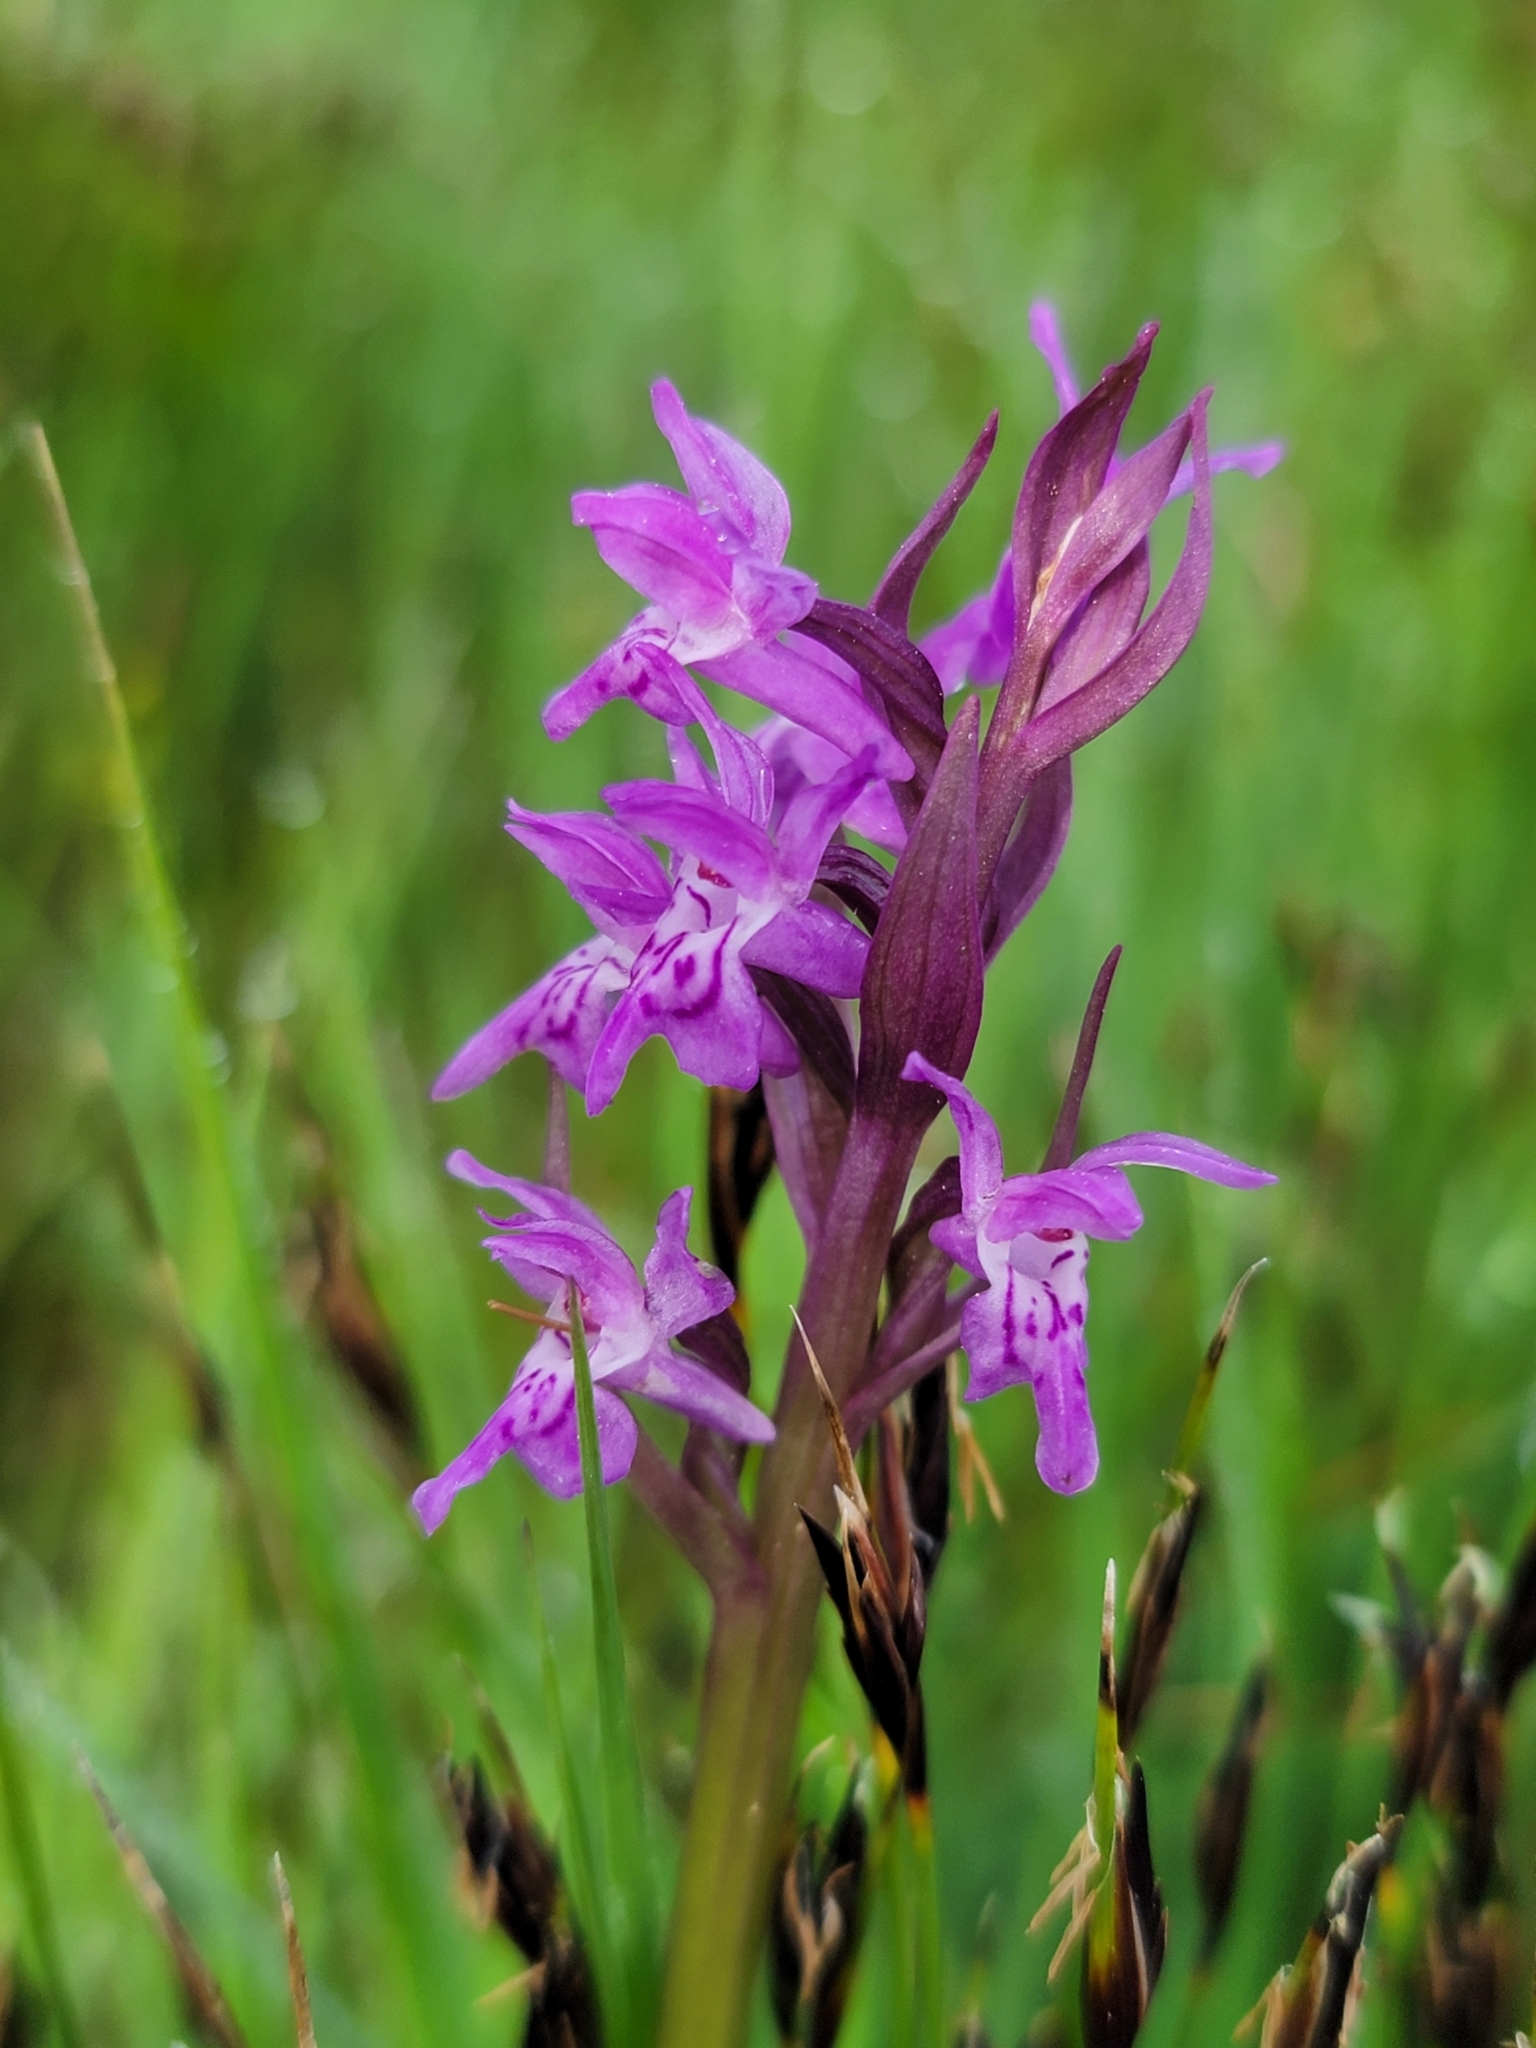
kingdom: Plantae
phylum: Tracheophyta
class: Liliopsida
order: Asparagales
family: Orchidaceae
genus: Dactylorhiza
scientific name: Dactylorhiza majalis
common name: Marsh orchid
